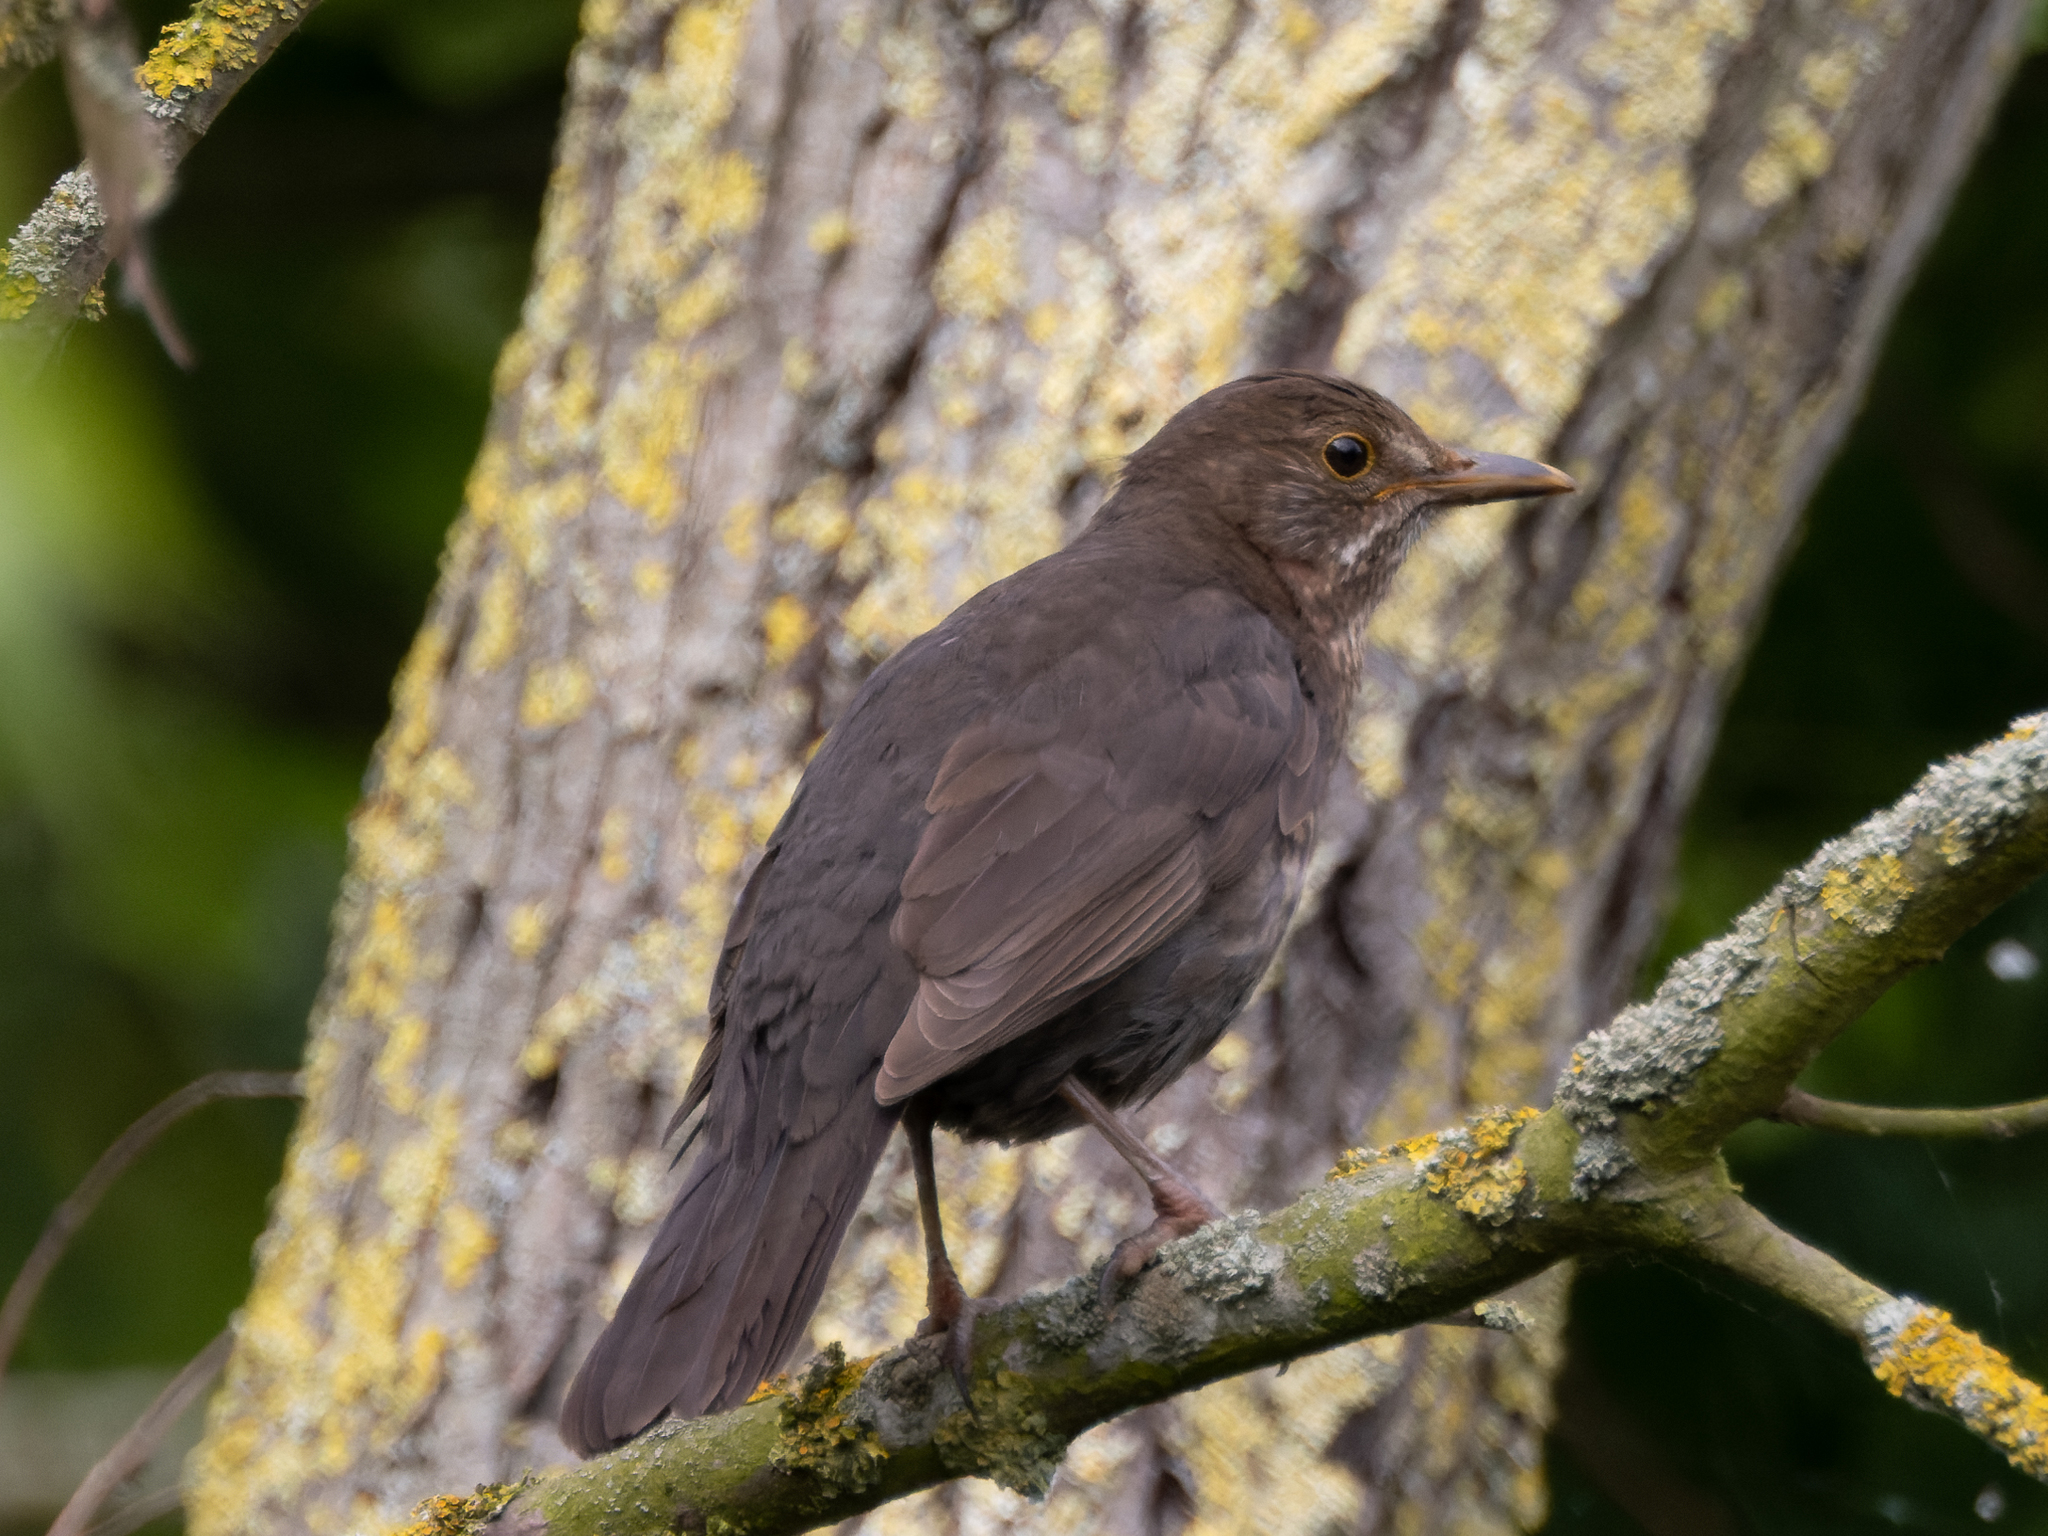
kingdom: Animalia
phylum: Chordata
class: Aves
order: Passeriformes
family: Turdidae
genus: Turdus
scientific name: Turdus merula
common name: Common blackbird
